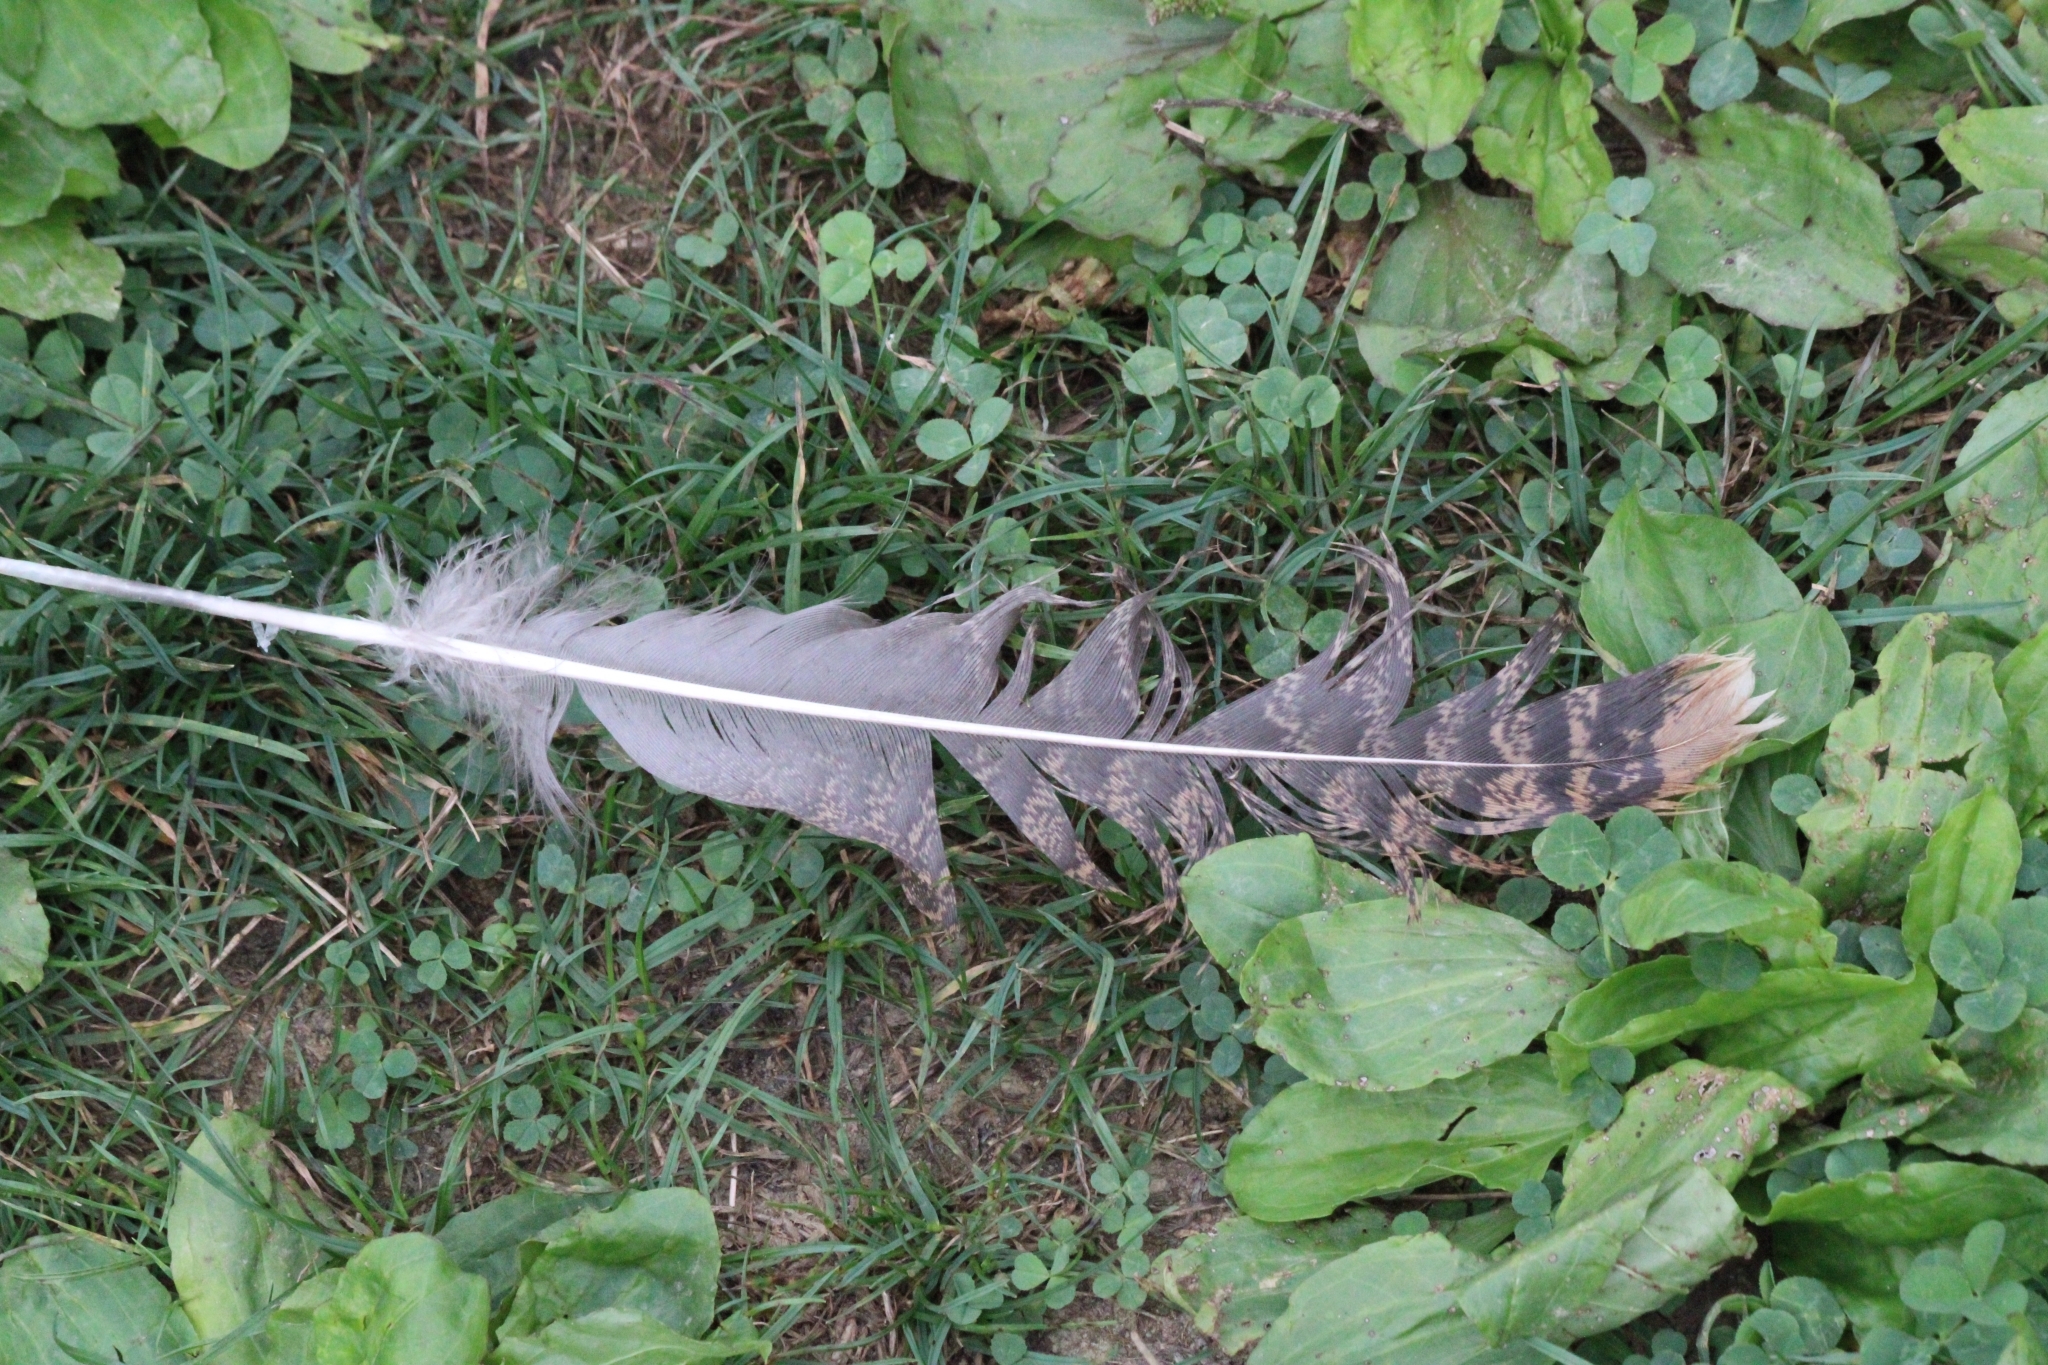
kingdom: Animalia
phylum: Chordata
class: Aves
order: Galliformes
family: Phasianidae
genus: Meleagris
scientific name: Meleagris gallopavo
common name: Wild turkey
